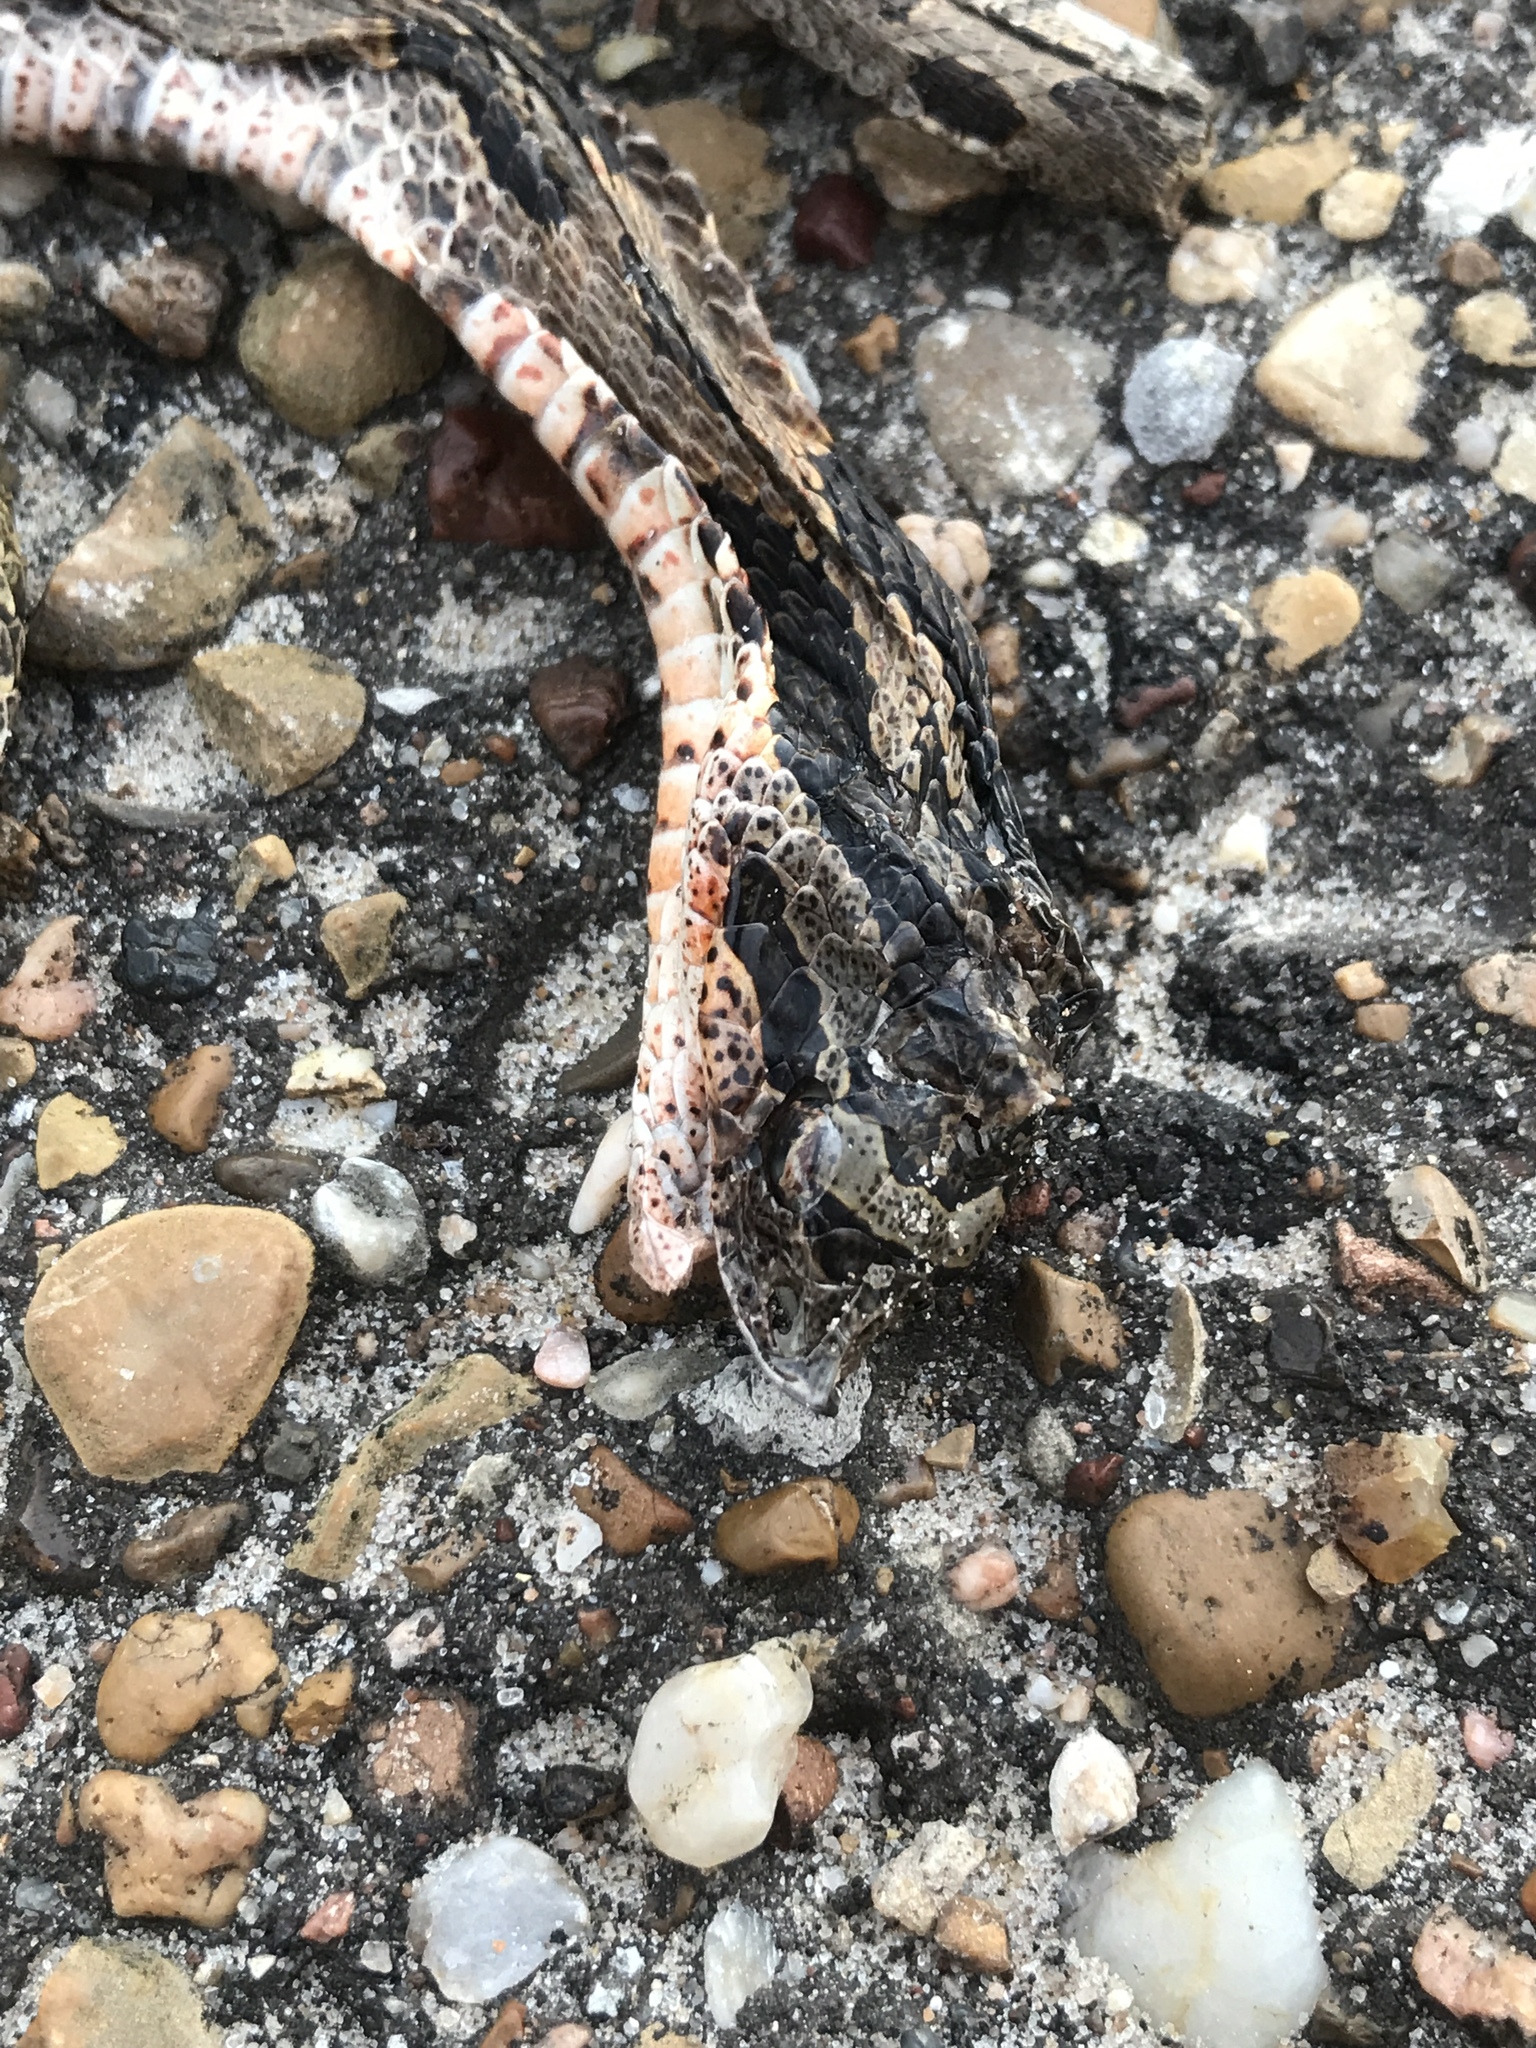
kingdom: Animalia
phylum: Chordata
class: Squamata
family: Colubridae
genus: Heterodon
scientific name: Heterodon platirhinos
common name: Eastern hognose snake
